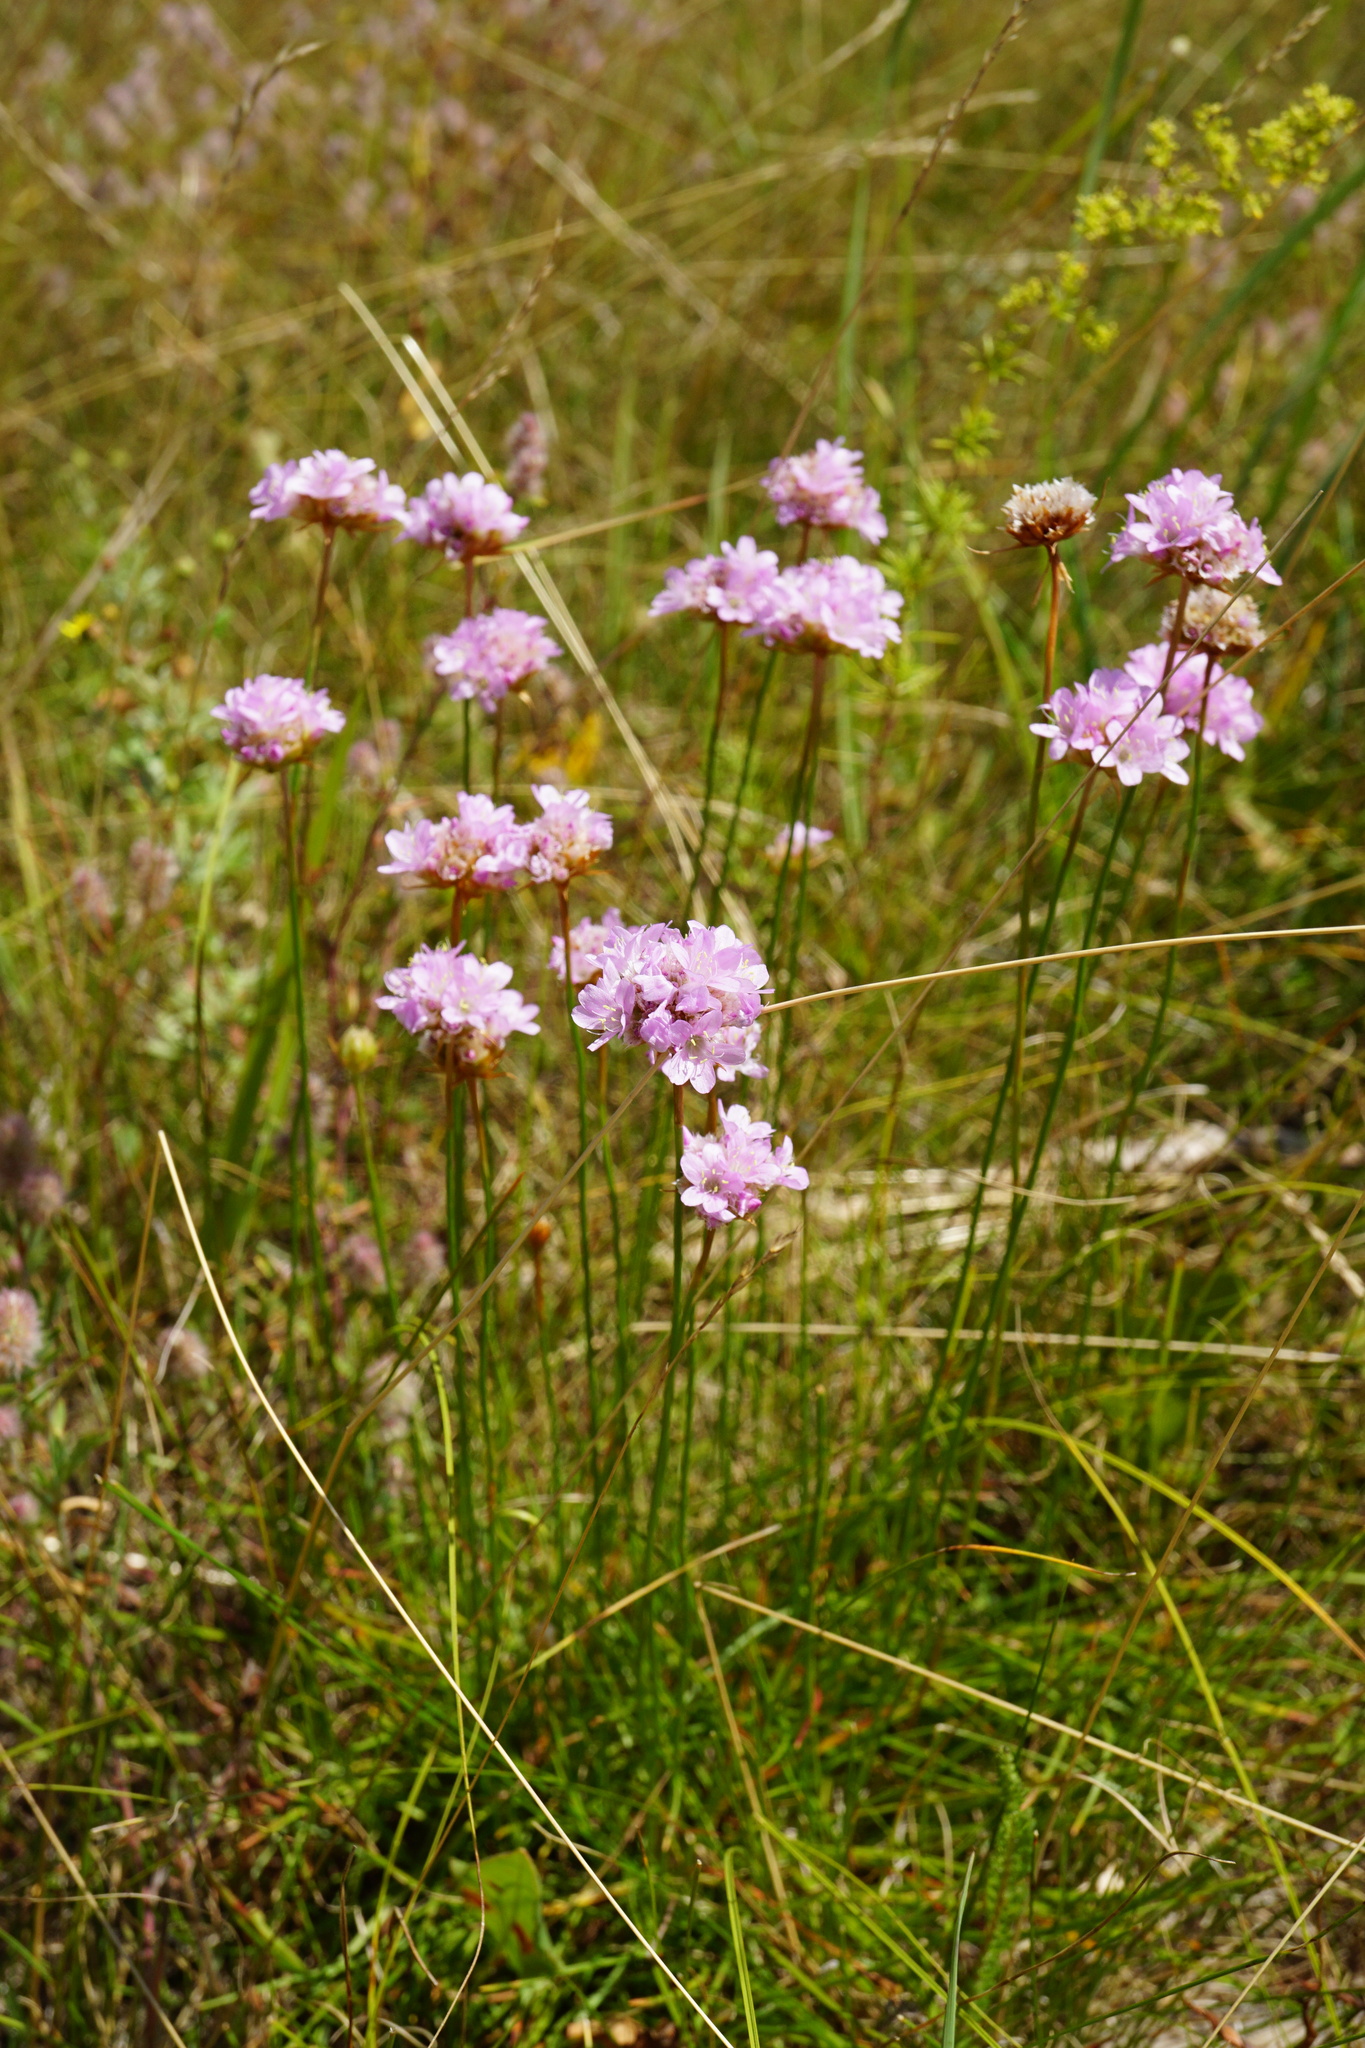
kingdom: Plantae
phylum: Tracheophyta
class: Magnoliopsida
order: Caryophyllales
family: Plumbaginaceae
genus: Armeria
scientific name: Armeria maritima
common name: Thrift
